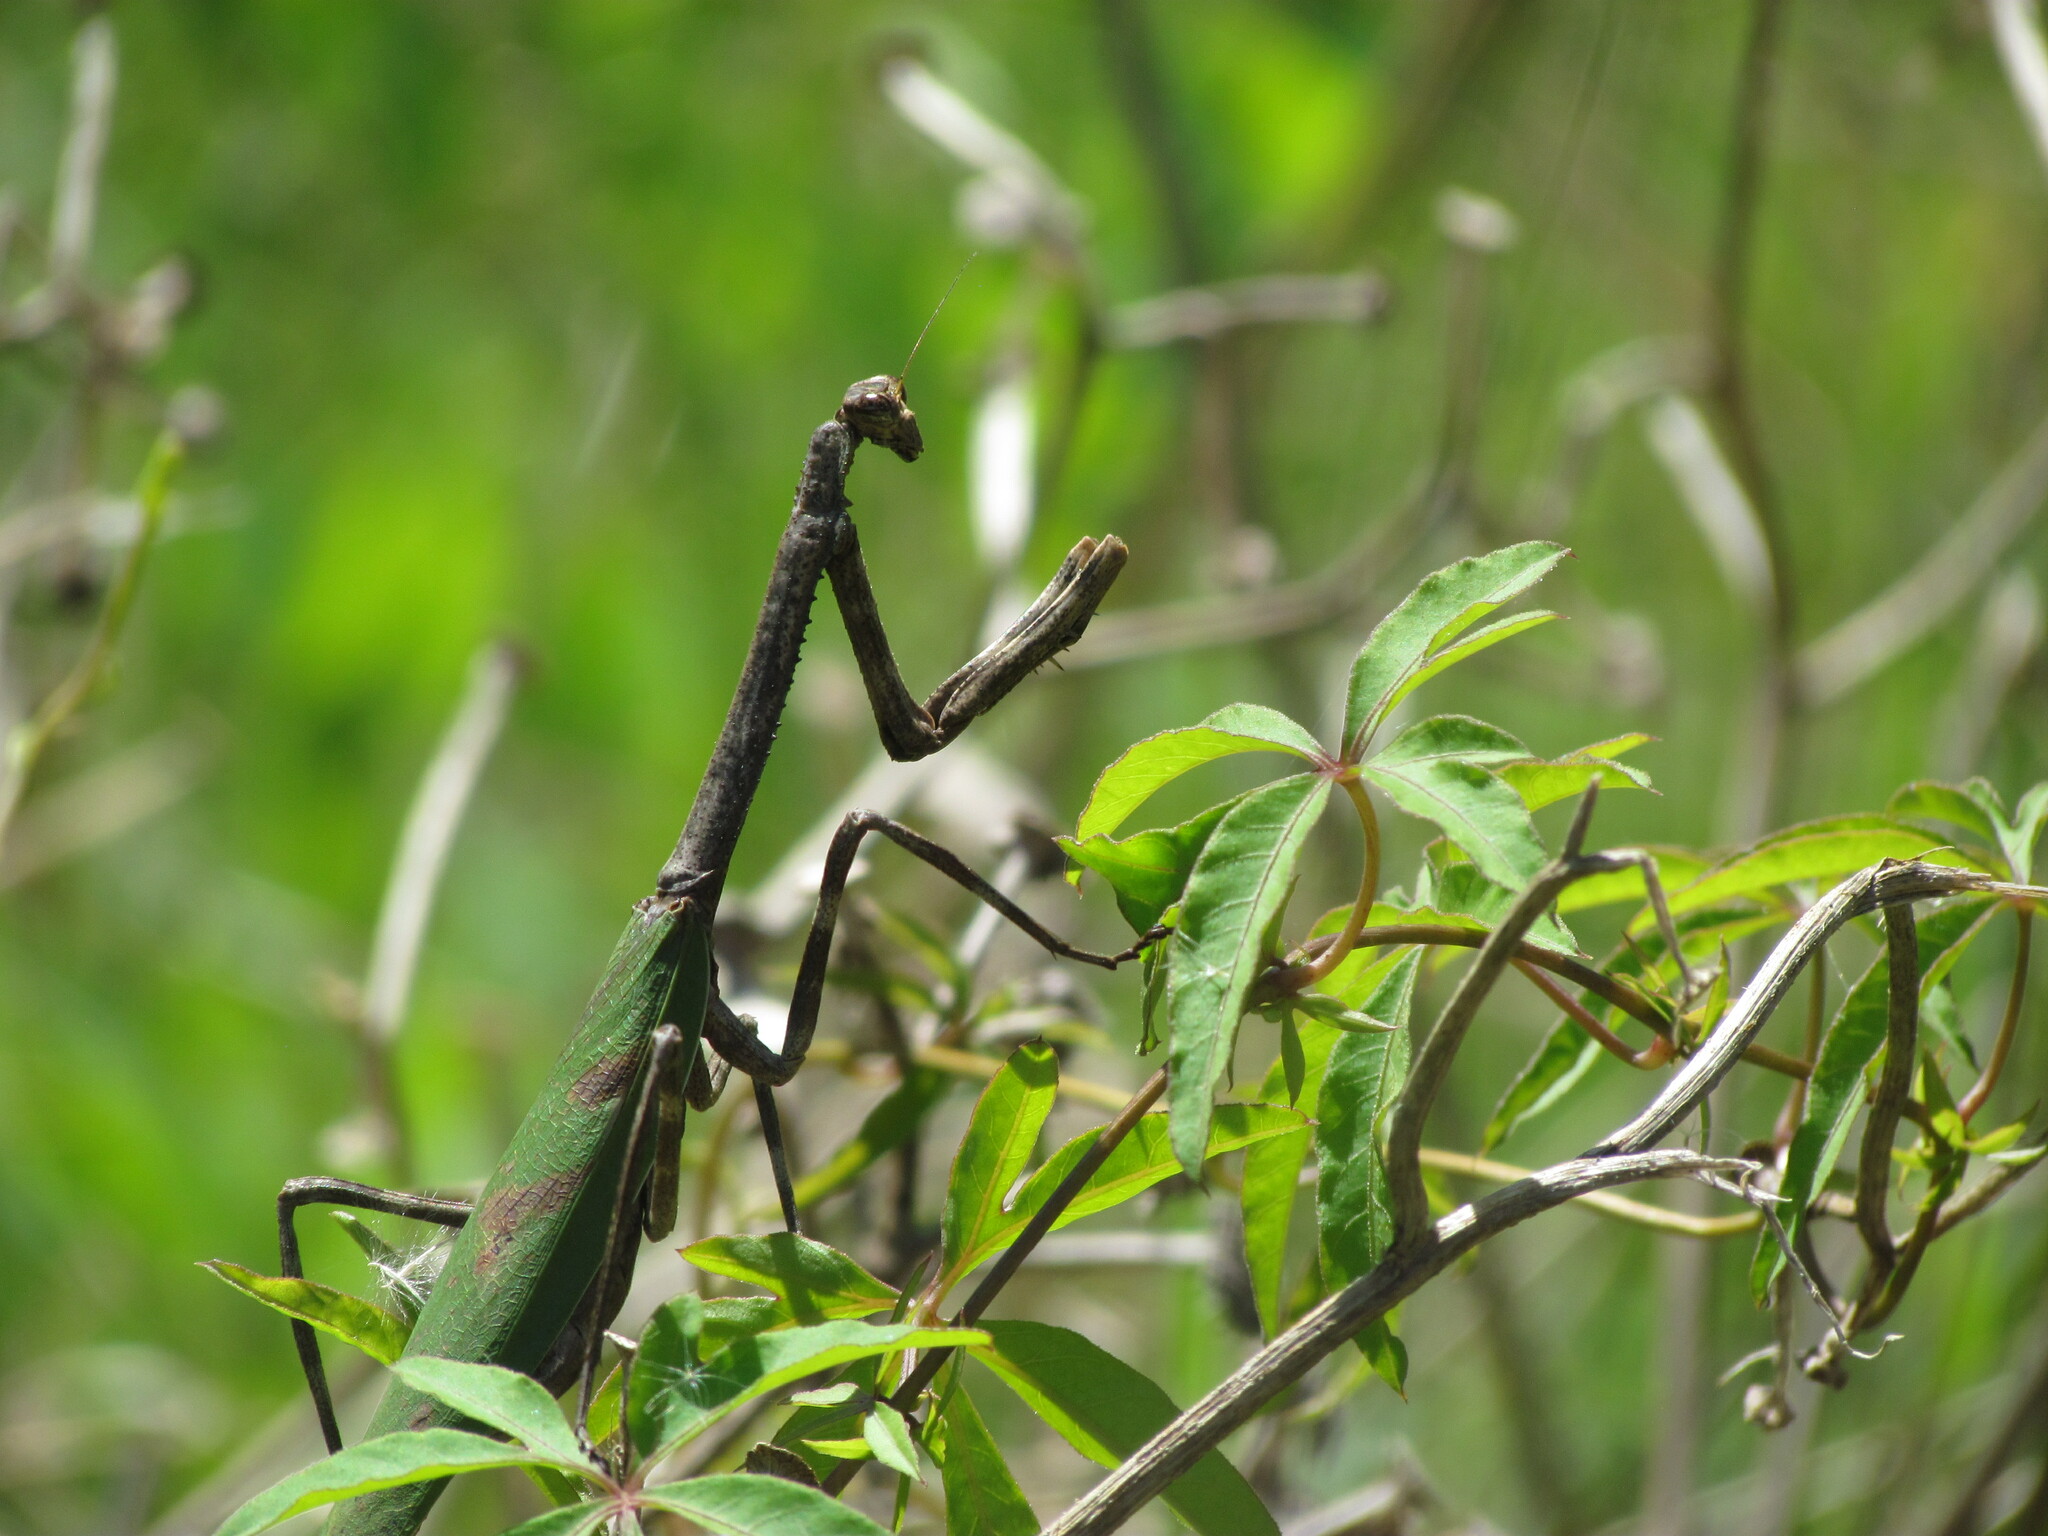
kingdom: Animalia
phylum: Arthropoda
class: Insecta
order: Mantodea
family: Mantidae
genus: Pseudovates
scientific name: Pseudovates iheringi
